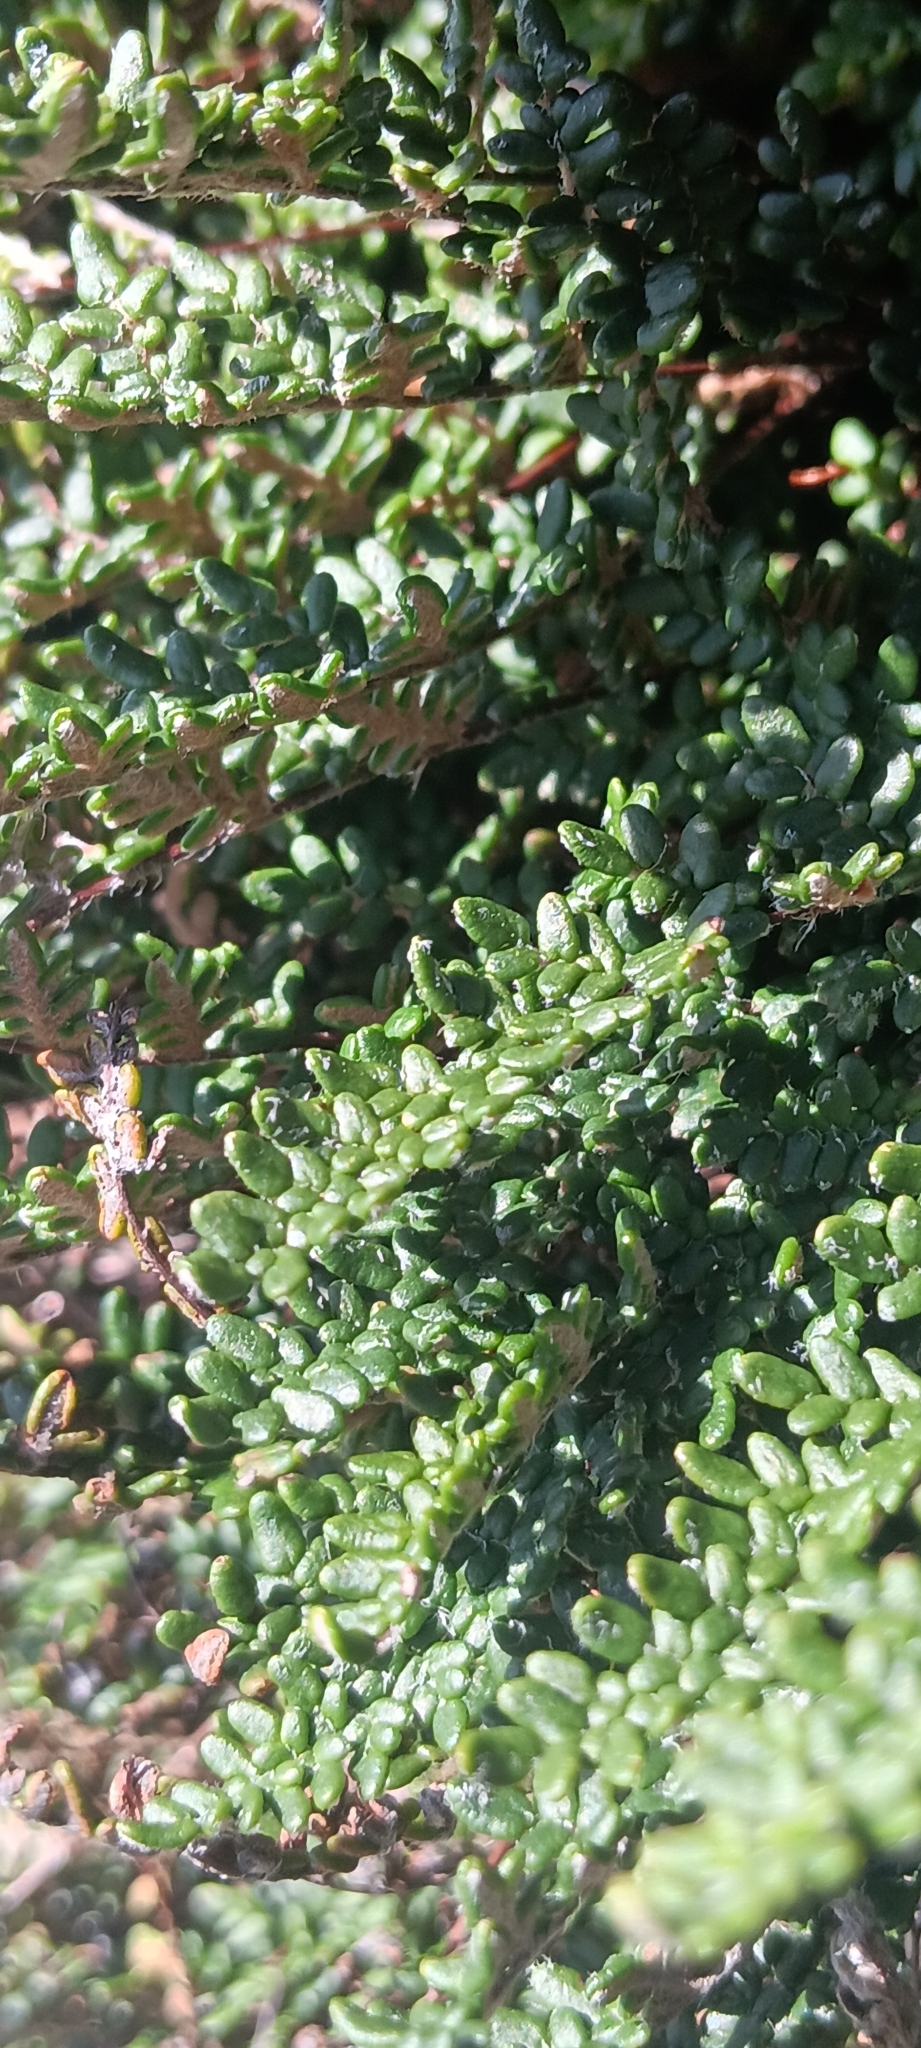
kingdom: Plantae
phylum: Tracheophyta
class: Polypodiopsida
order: Polypodiales
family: Pteridaceae
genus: Myriopteris
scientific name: Myriopteris gracillima
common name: Lace fern
